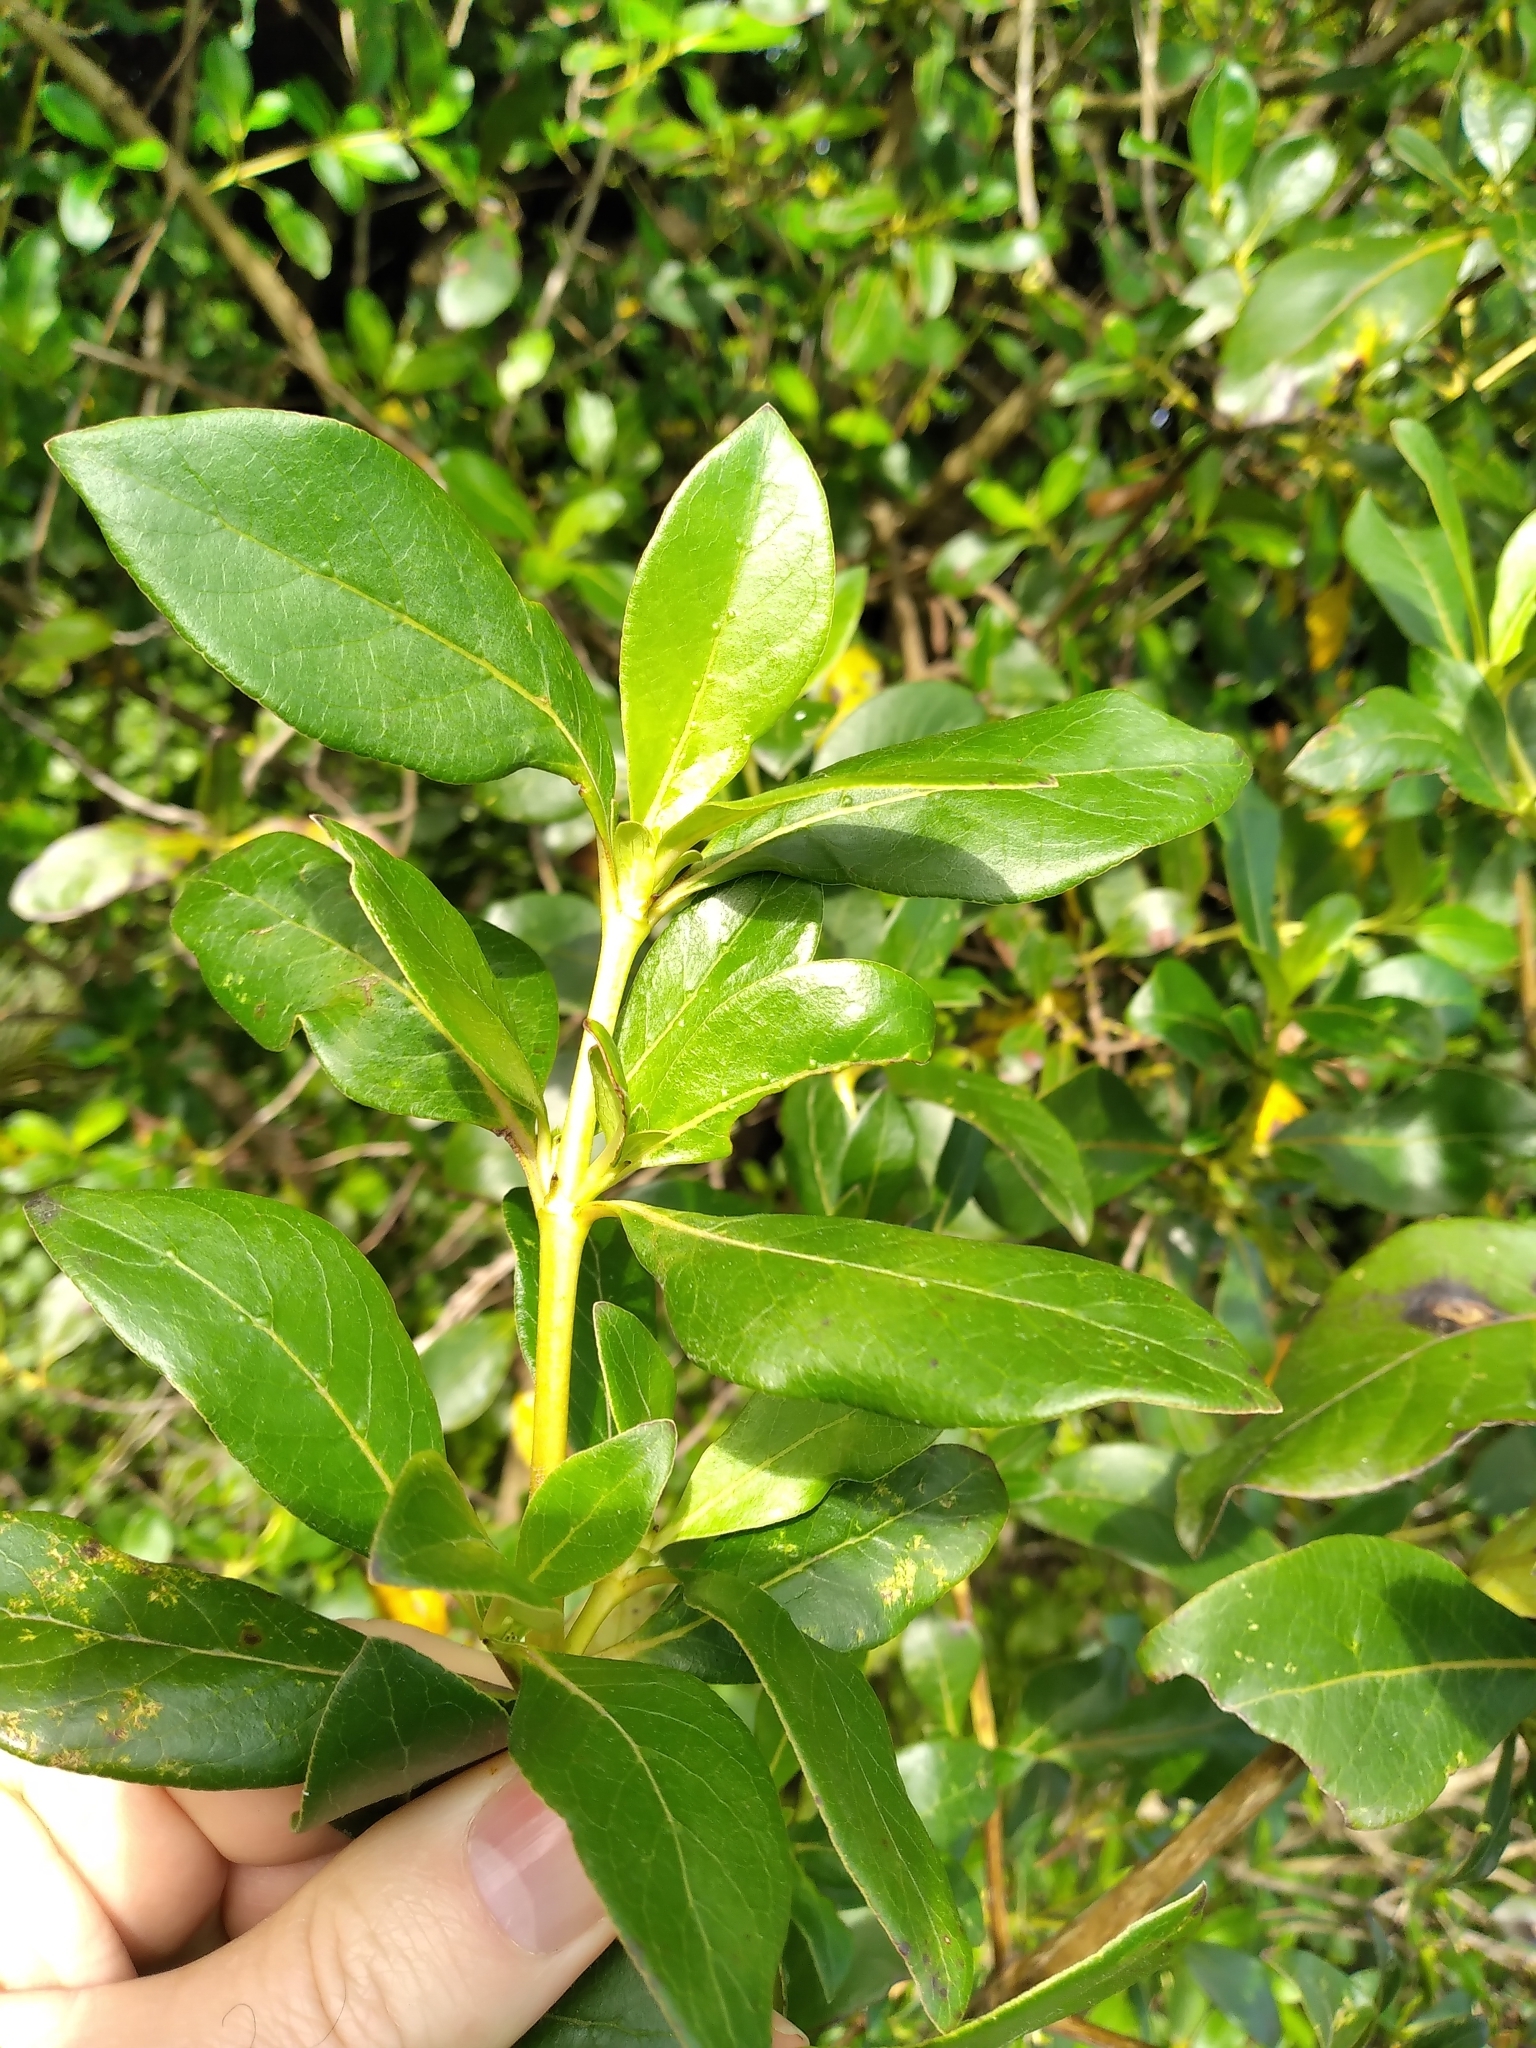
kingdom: Plantae
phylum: Tracheophyta
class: Magnoliopsida
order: Gentianales
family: Rubiaceae
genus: Coprosma
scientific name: Coprosma robusta
